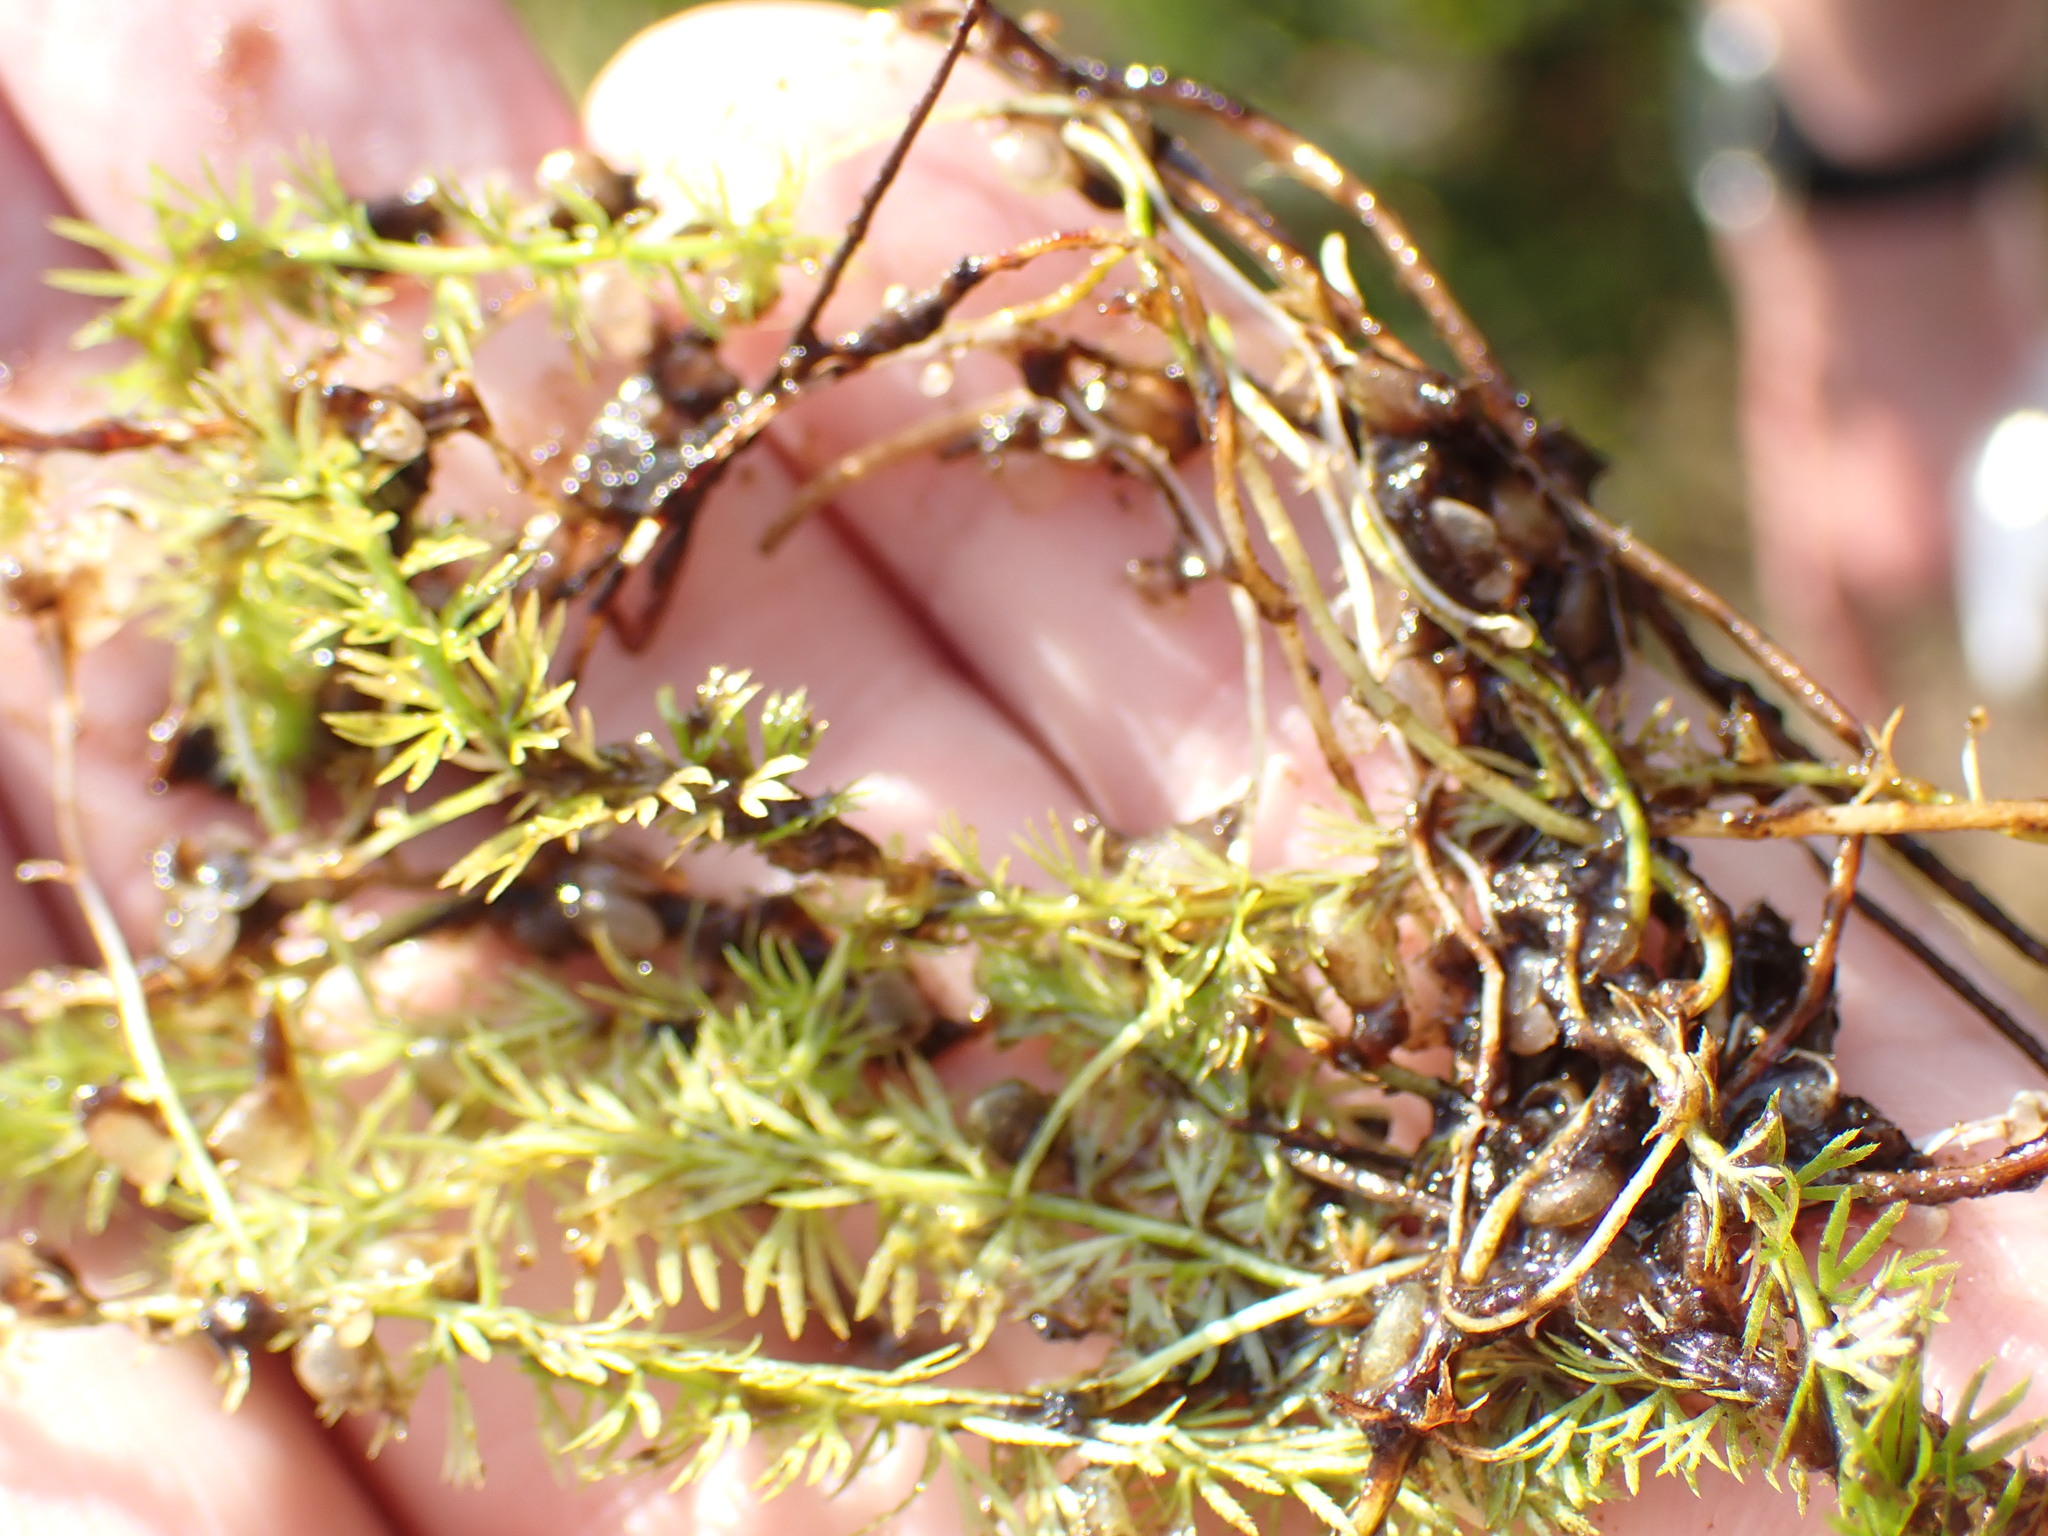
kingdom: Plantae
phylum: Tracheophyta
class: Magnoliopsida
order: Lamiales
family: Lentibulariaceae
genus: Utricularia
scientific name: Utricularia intermedia
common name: Intermediate bladderwort
